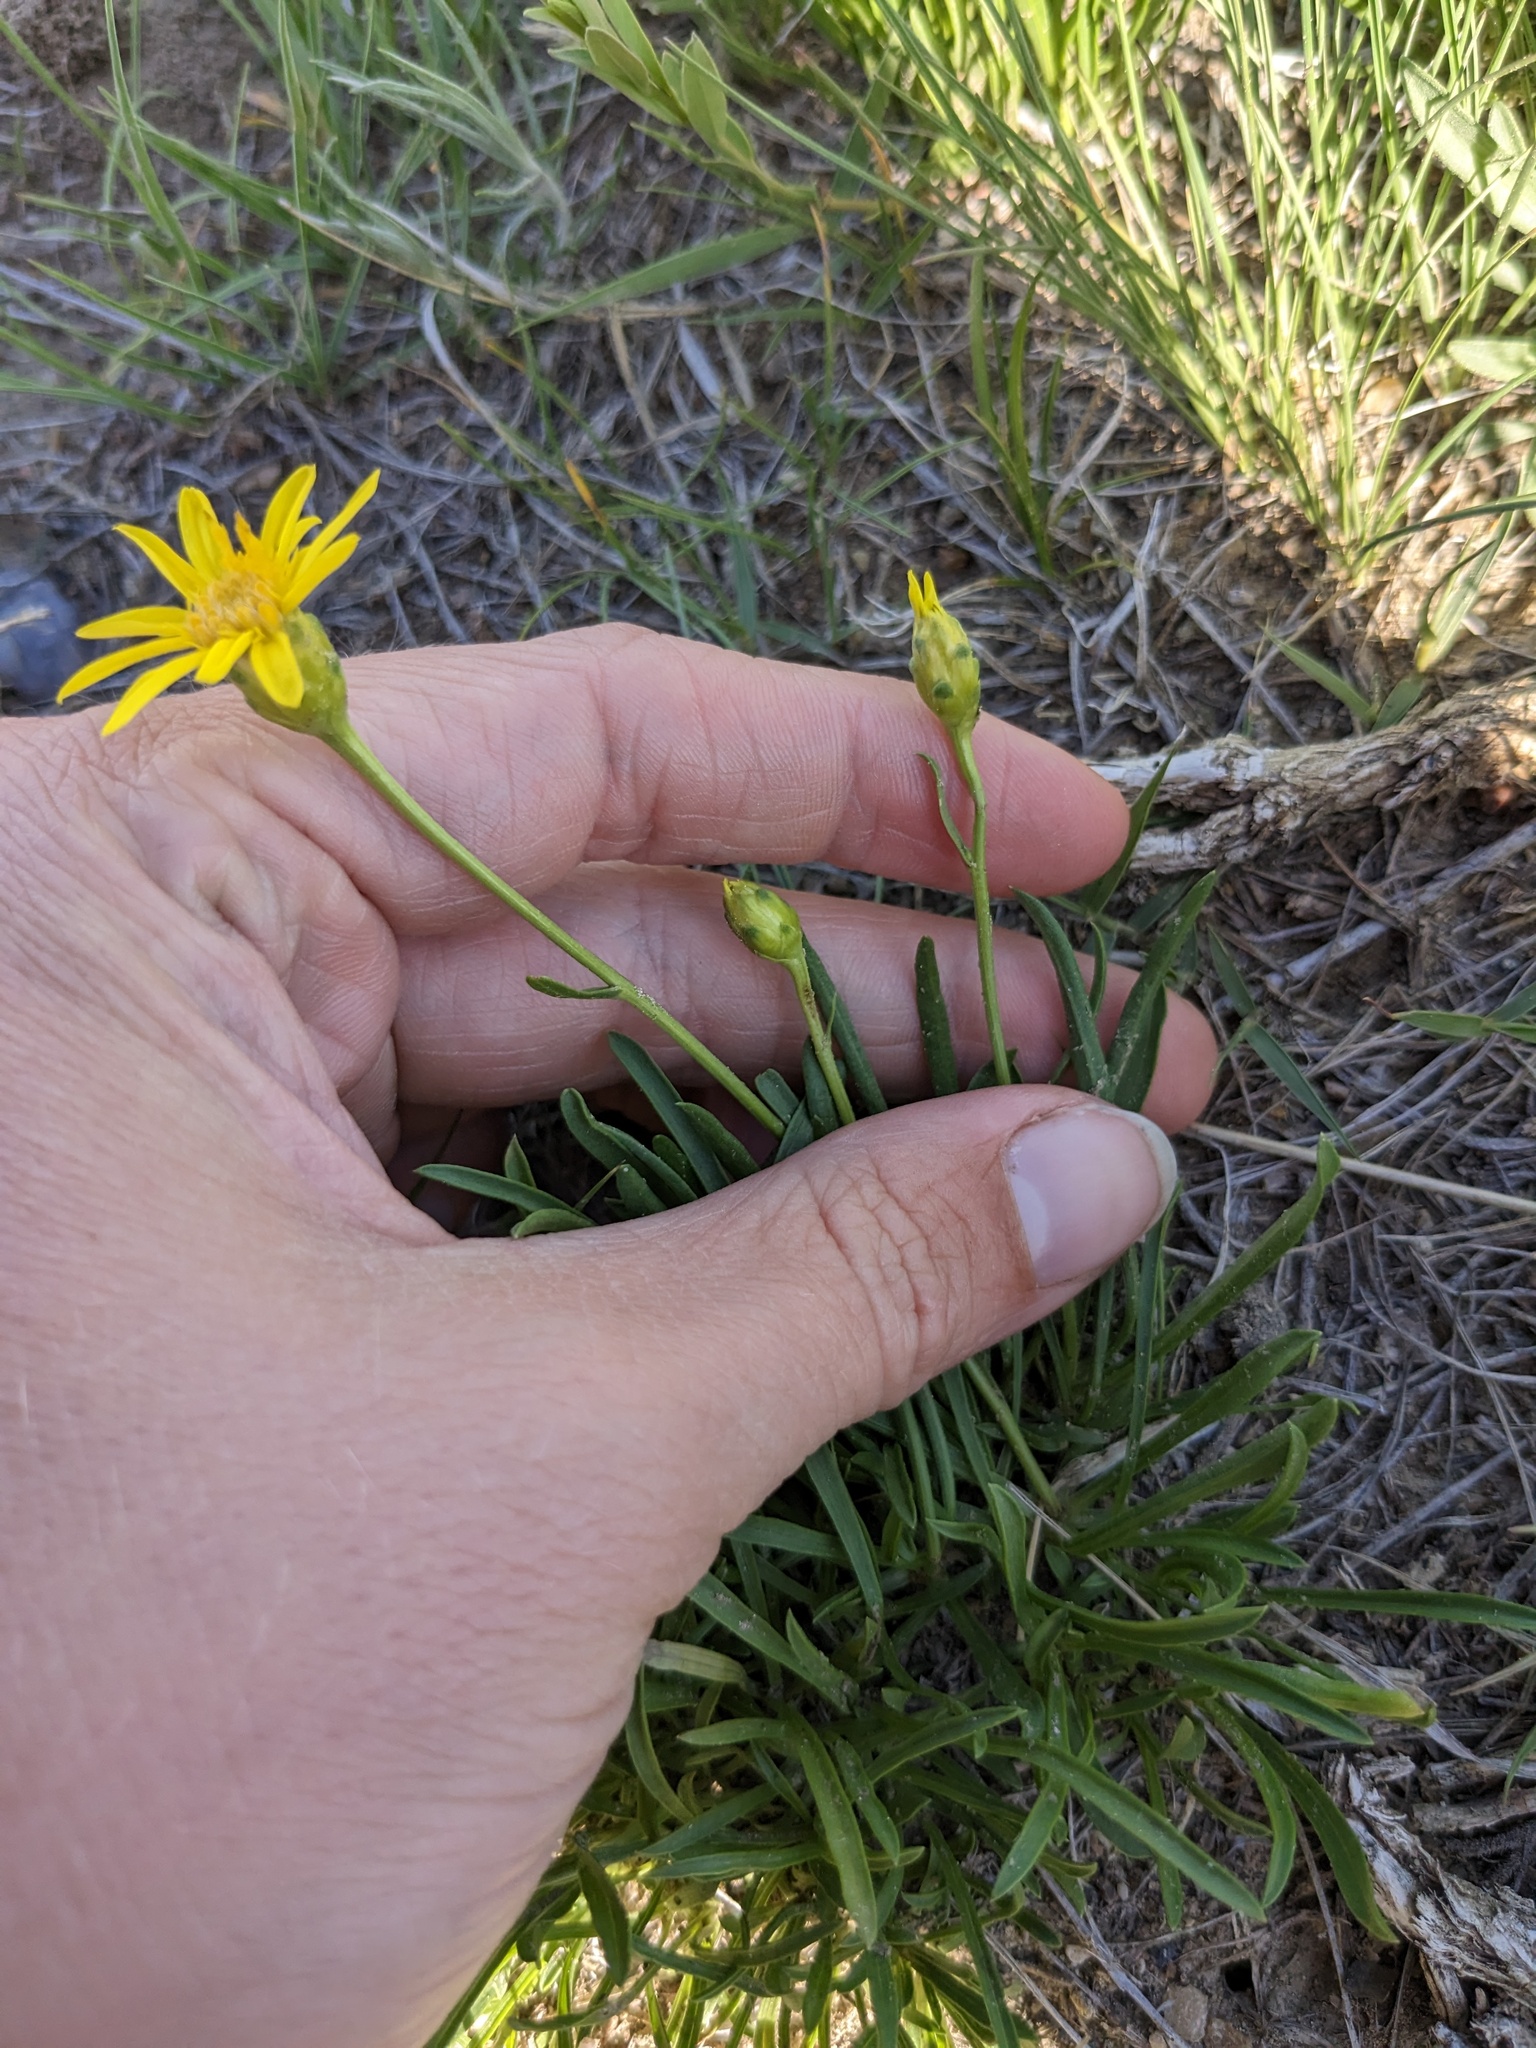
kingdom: Plantae
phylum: Tracheophyta
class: Magnoliopsida
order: Asterales
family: Asteraceae
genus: Stenotus
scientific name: Stenotus armerioides
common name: Thrifty goldenweed
